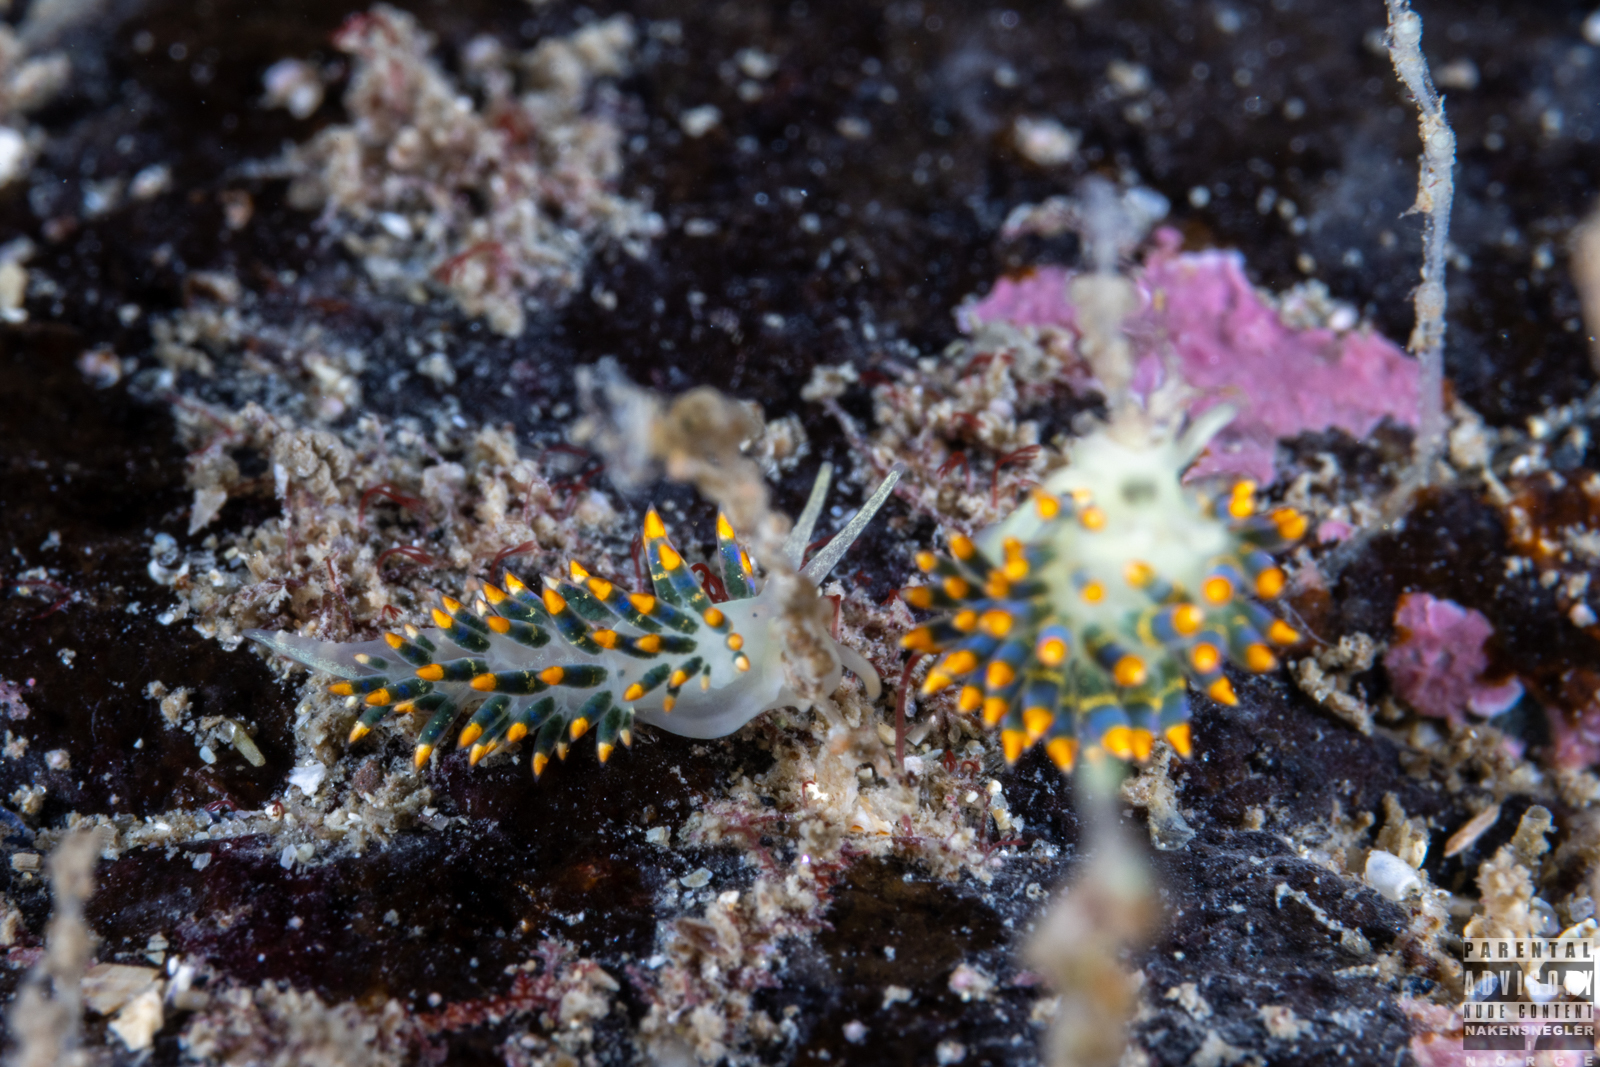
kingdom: Animalia
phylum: Mollusca
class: Gastropoda
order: Nudibranchia
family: Trinchesiidae
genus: Trinchesia
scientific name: Trinchesia cuanensis
